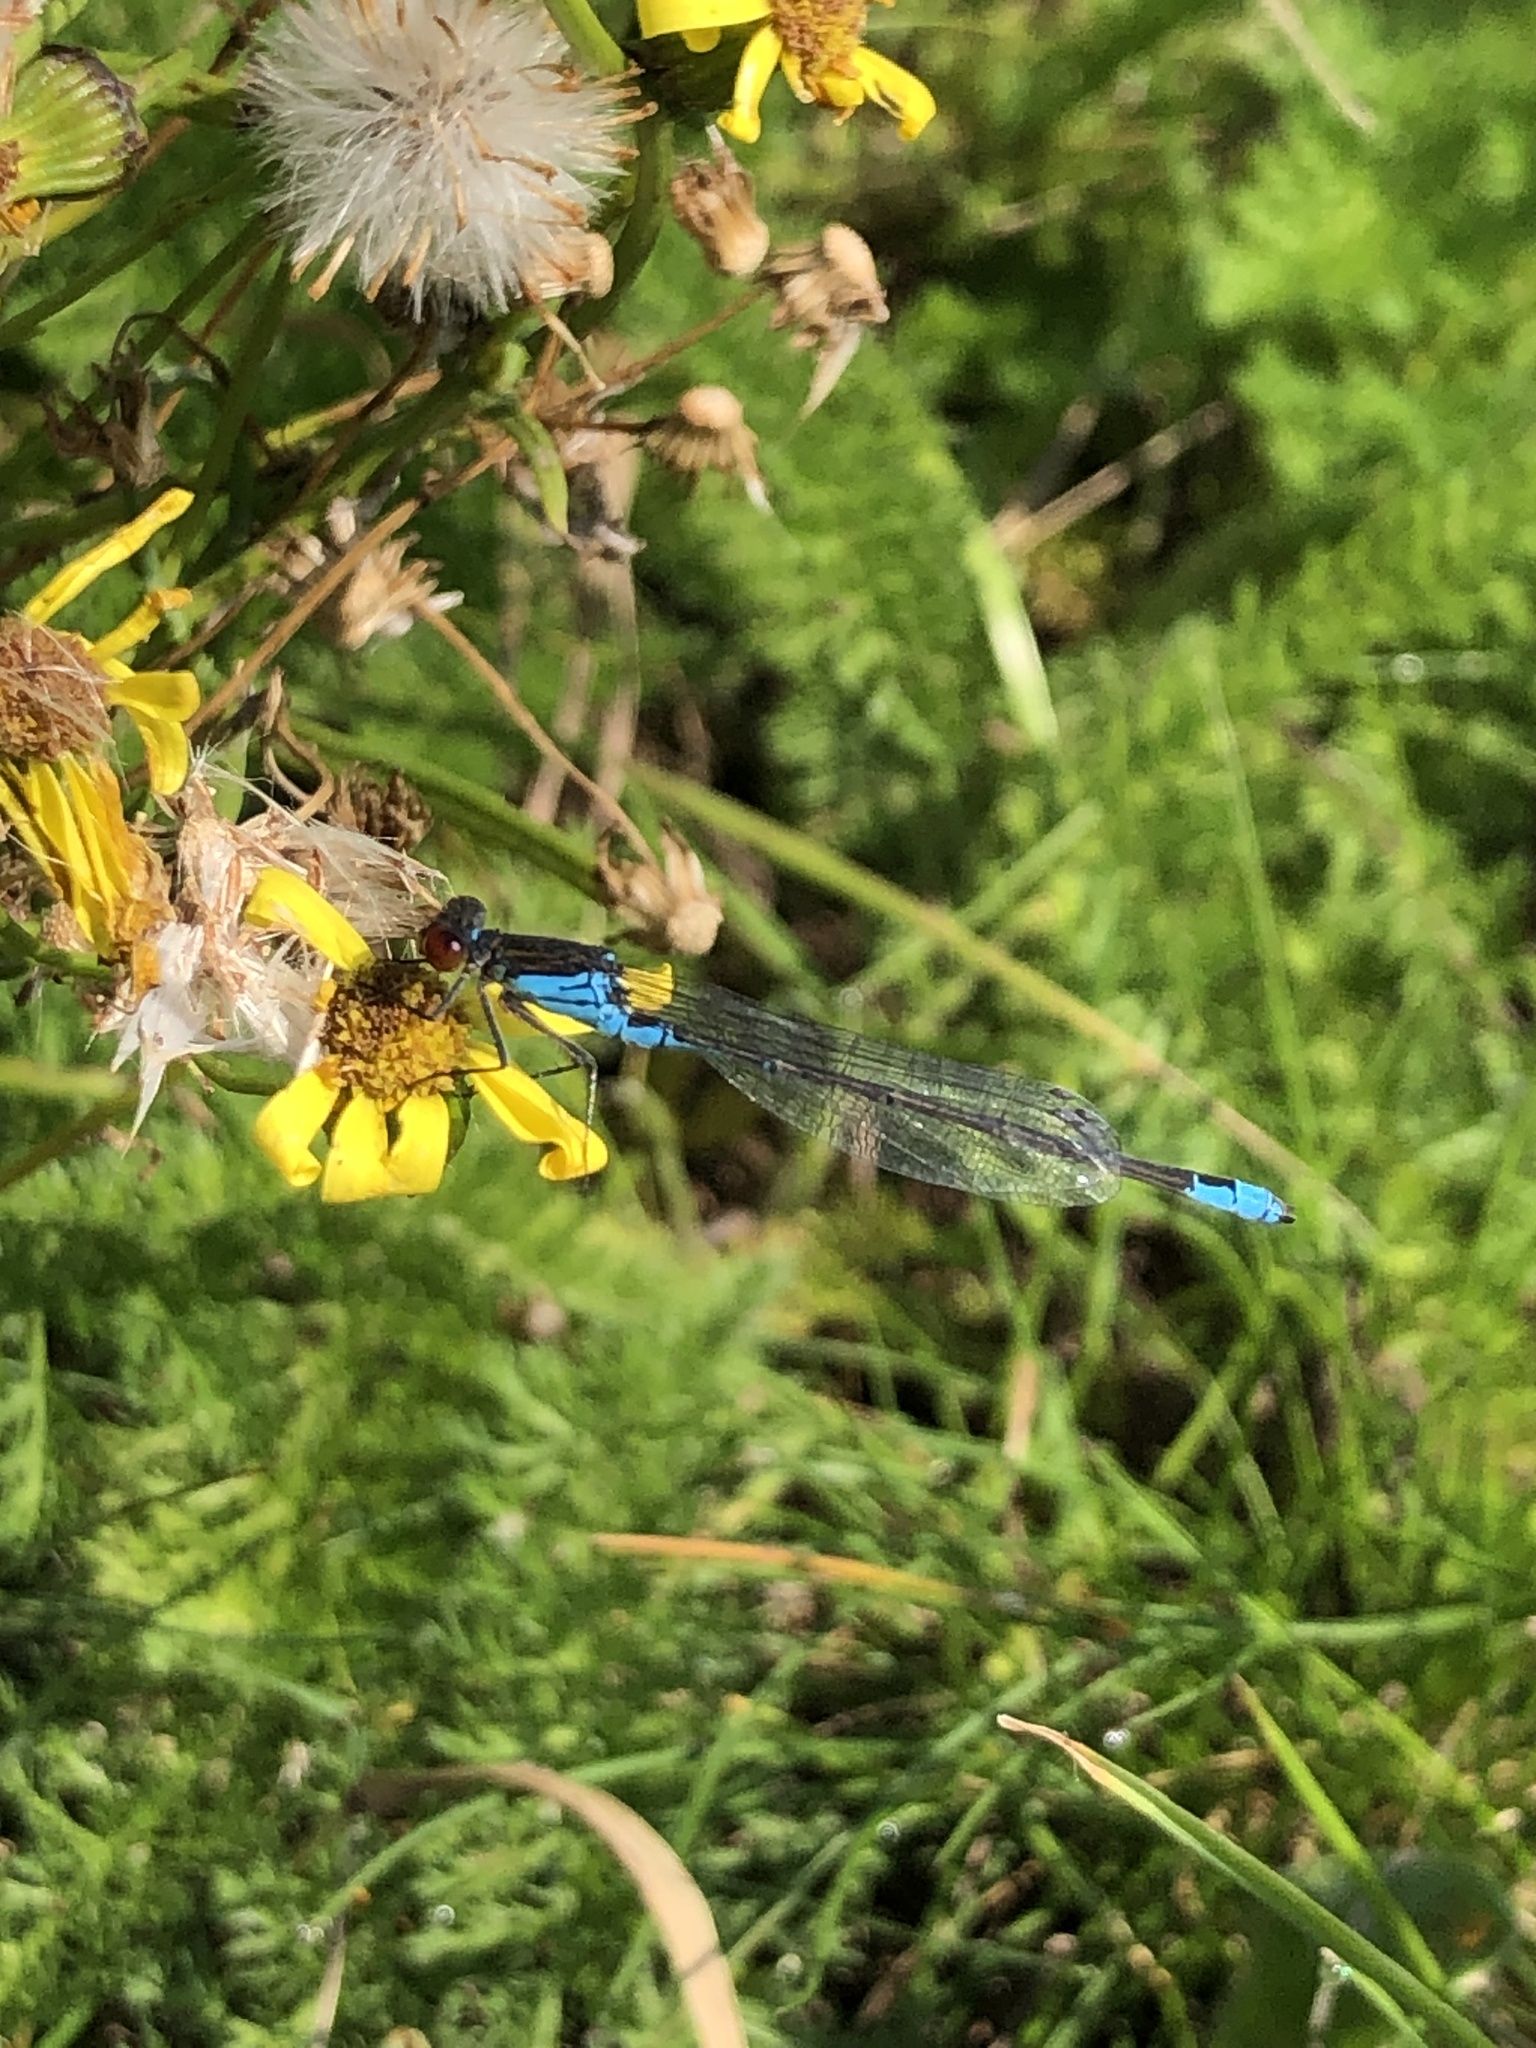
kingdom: Animalia
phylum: Arthropoda
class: Insecta
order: Odonata
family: Coenagrionidae
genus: Erythromma
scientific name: Erythromma viridulum
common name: Small red-eyed damselfly
